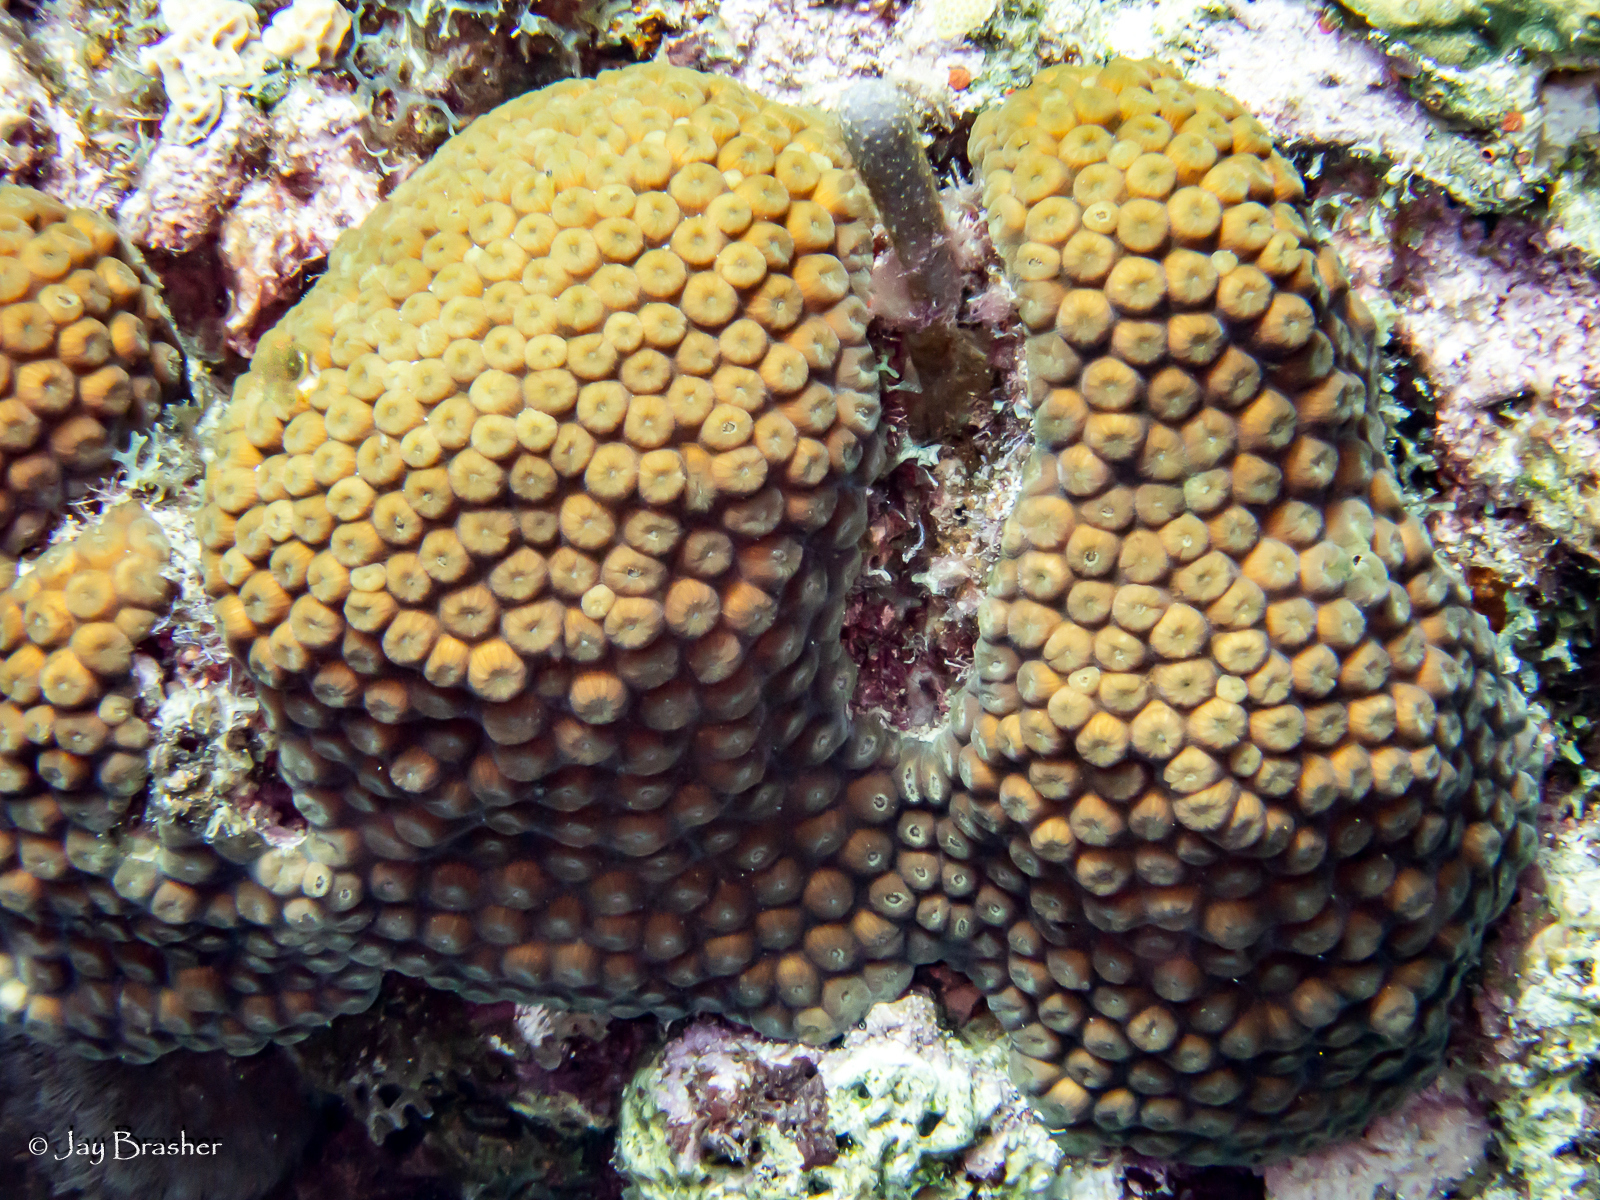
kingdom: Animalia
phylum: Cnidaria
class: Anthozoa
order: Scleractinia
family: Montastraeidae
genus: Montastraea
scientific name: Montastraea cavernosa
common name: Great star coral
